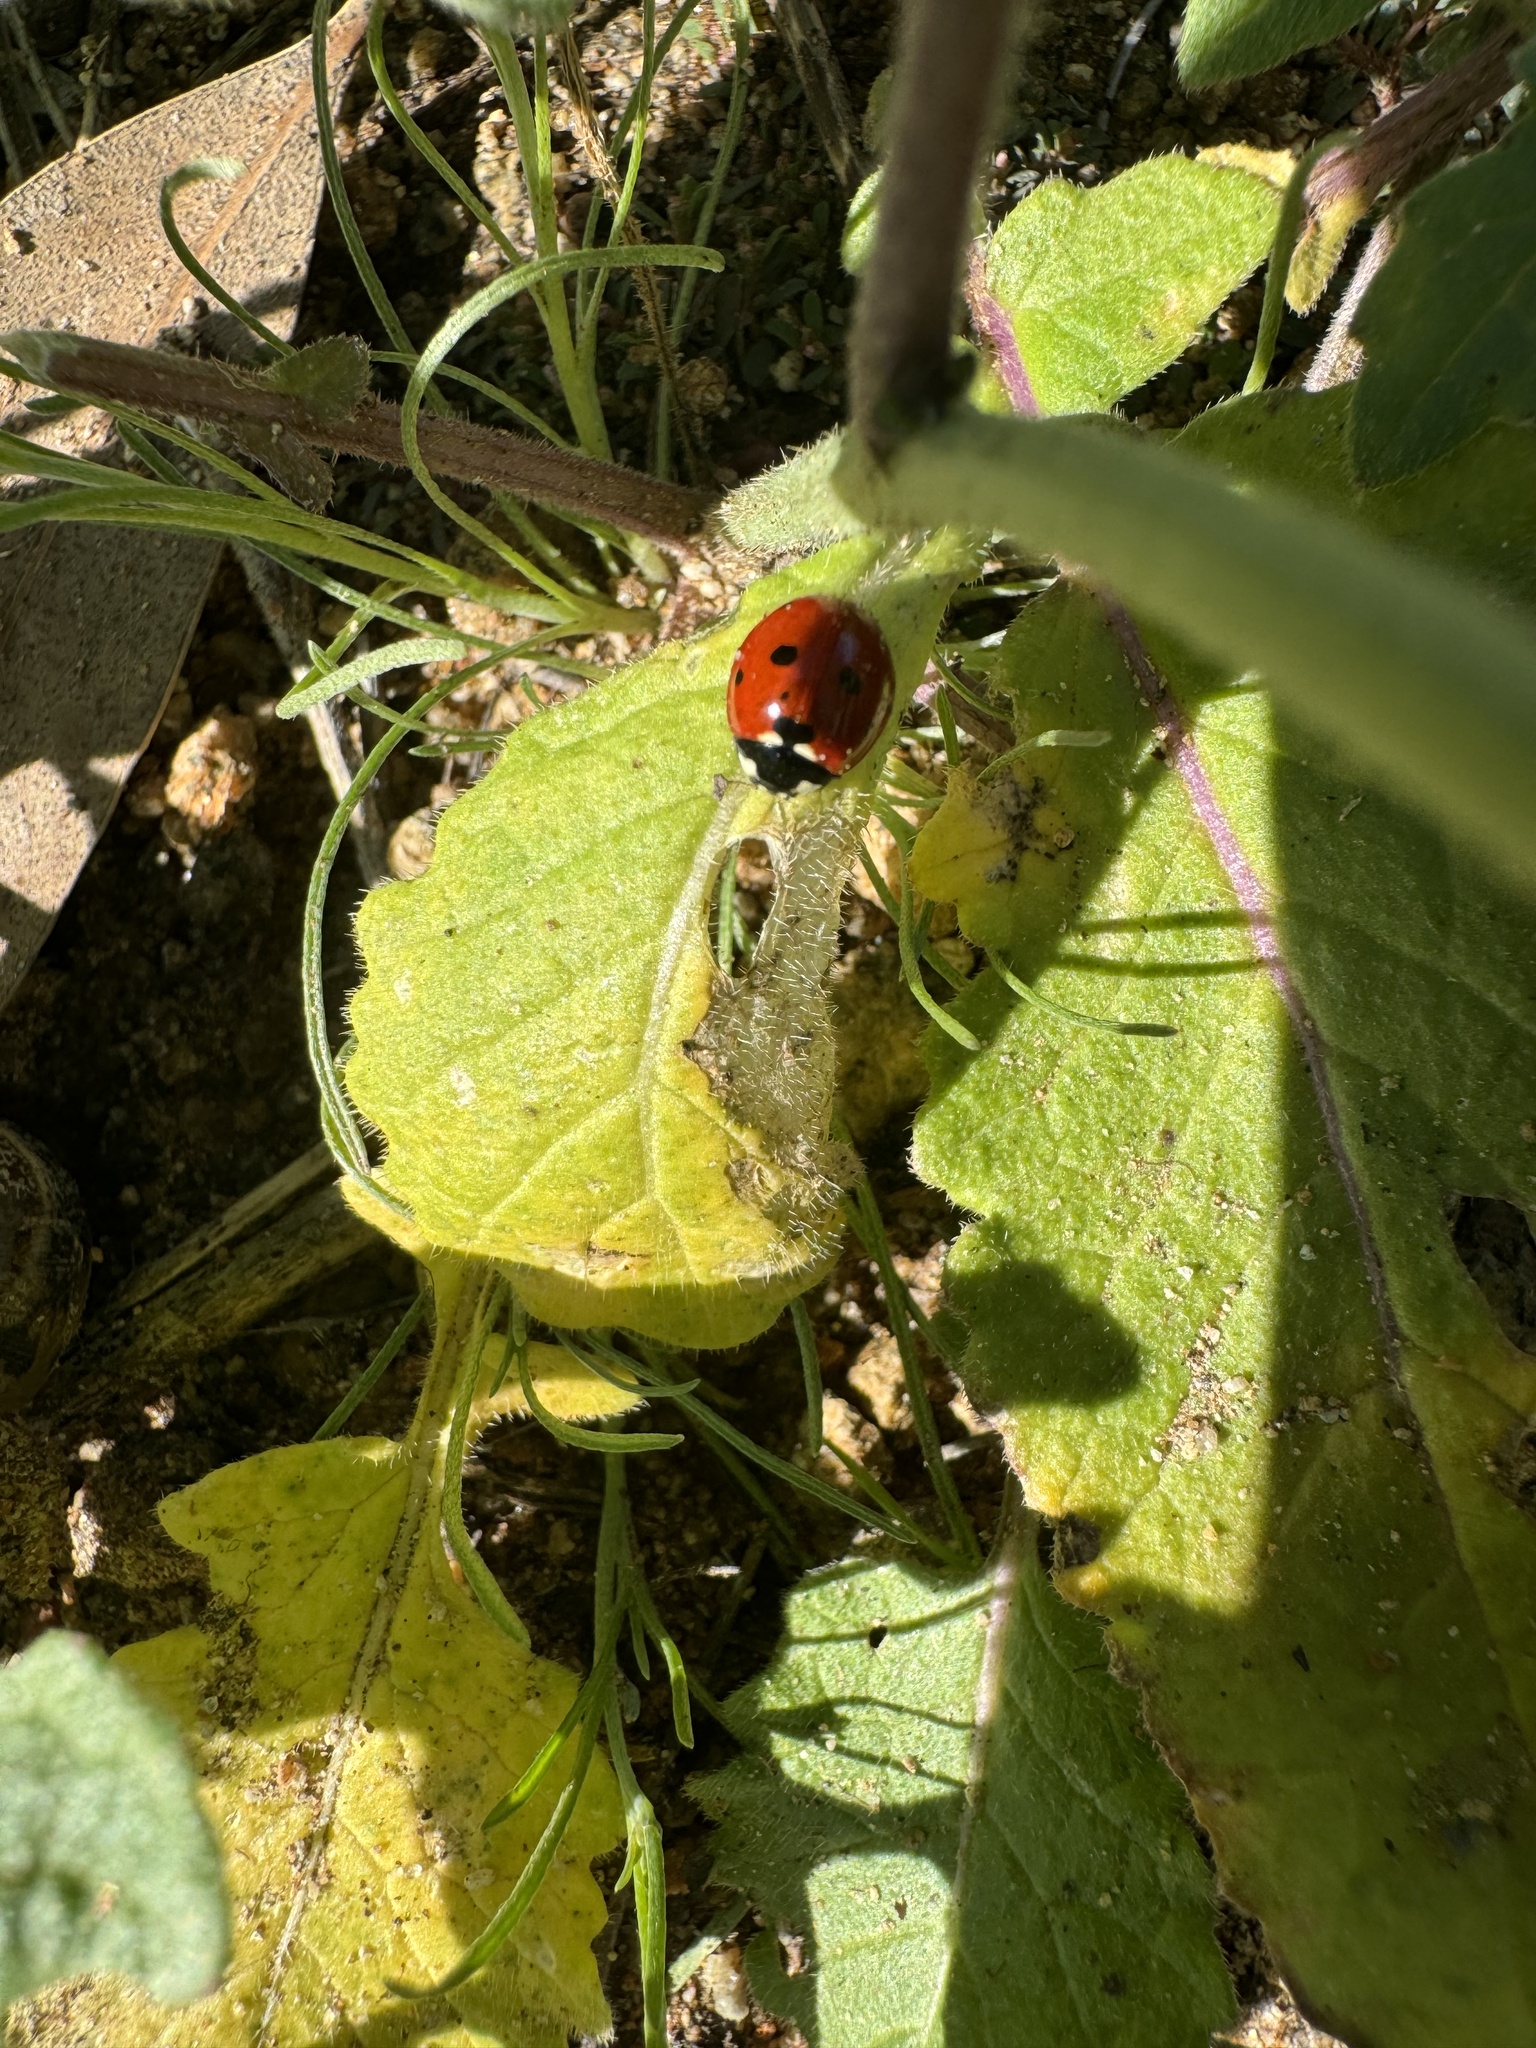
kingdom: Animalia
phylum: Arthropoda
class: Insecta
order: Coleoptera
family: Coccinellidae
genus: Coccinella
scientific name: Coccinella septempunctata
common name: Sevenspotted lady beetle
